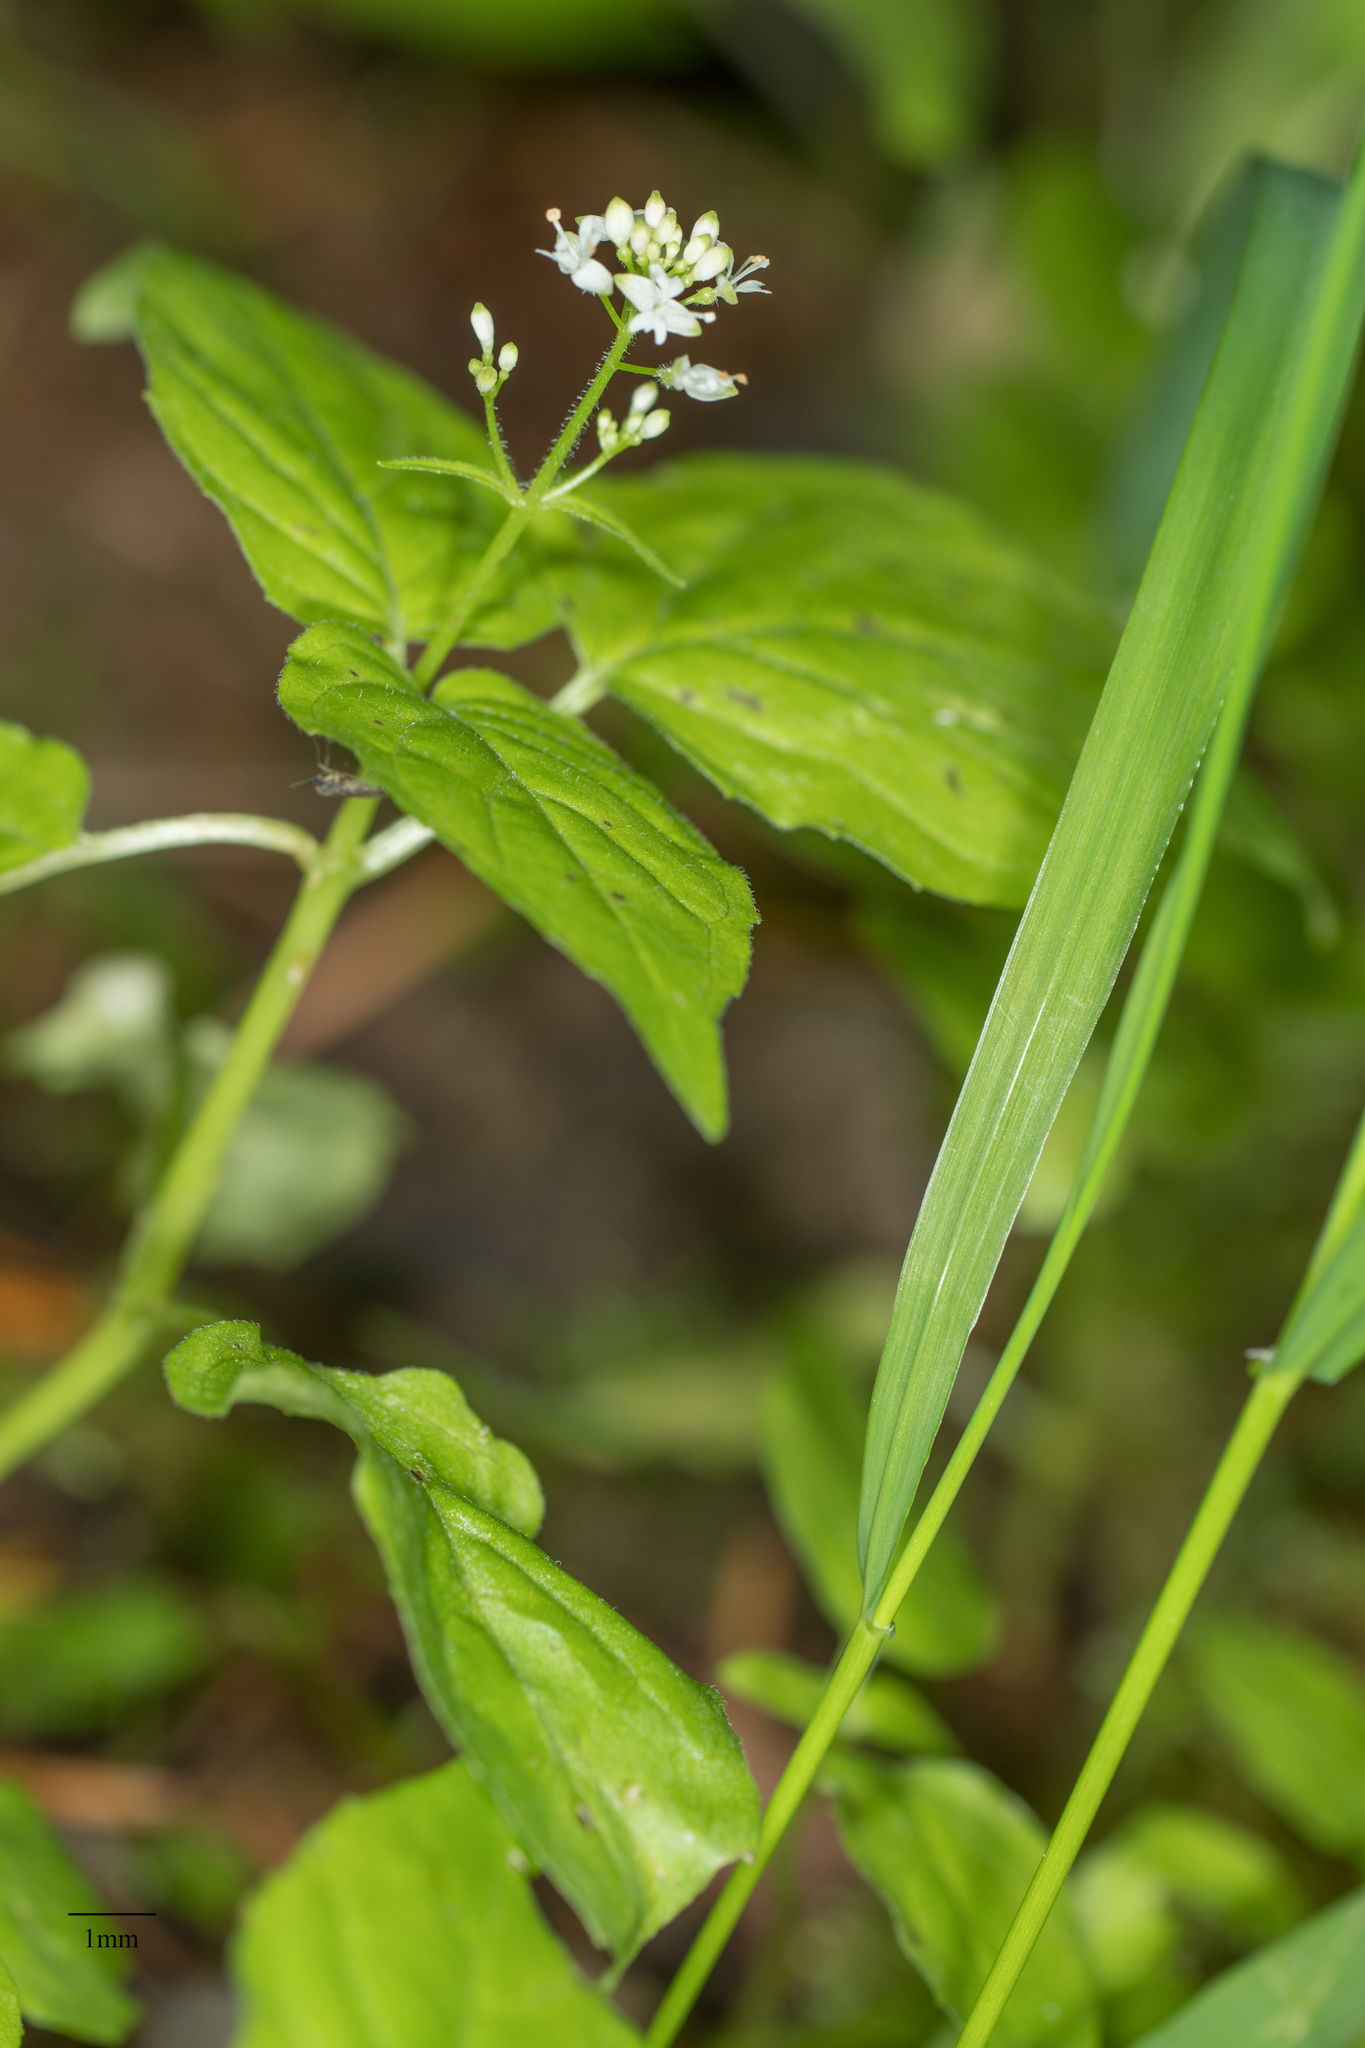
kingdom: Plantae
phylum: Tracheophyta
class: Magnoliopsida
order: Myrtales
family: Onagraceae
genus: Circaea
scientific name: Circaea alpina
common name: Alpine enchanter's-nightshade
